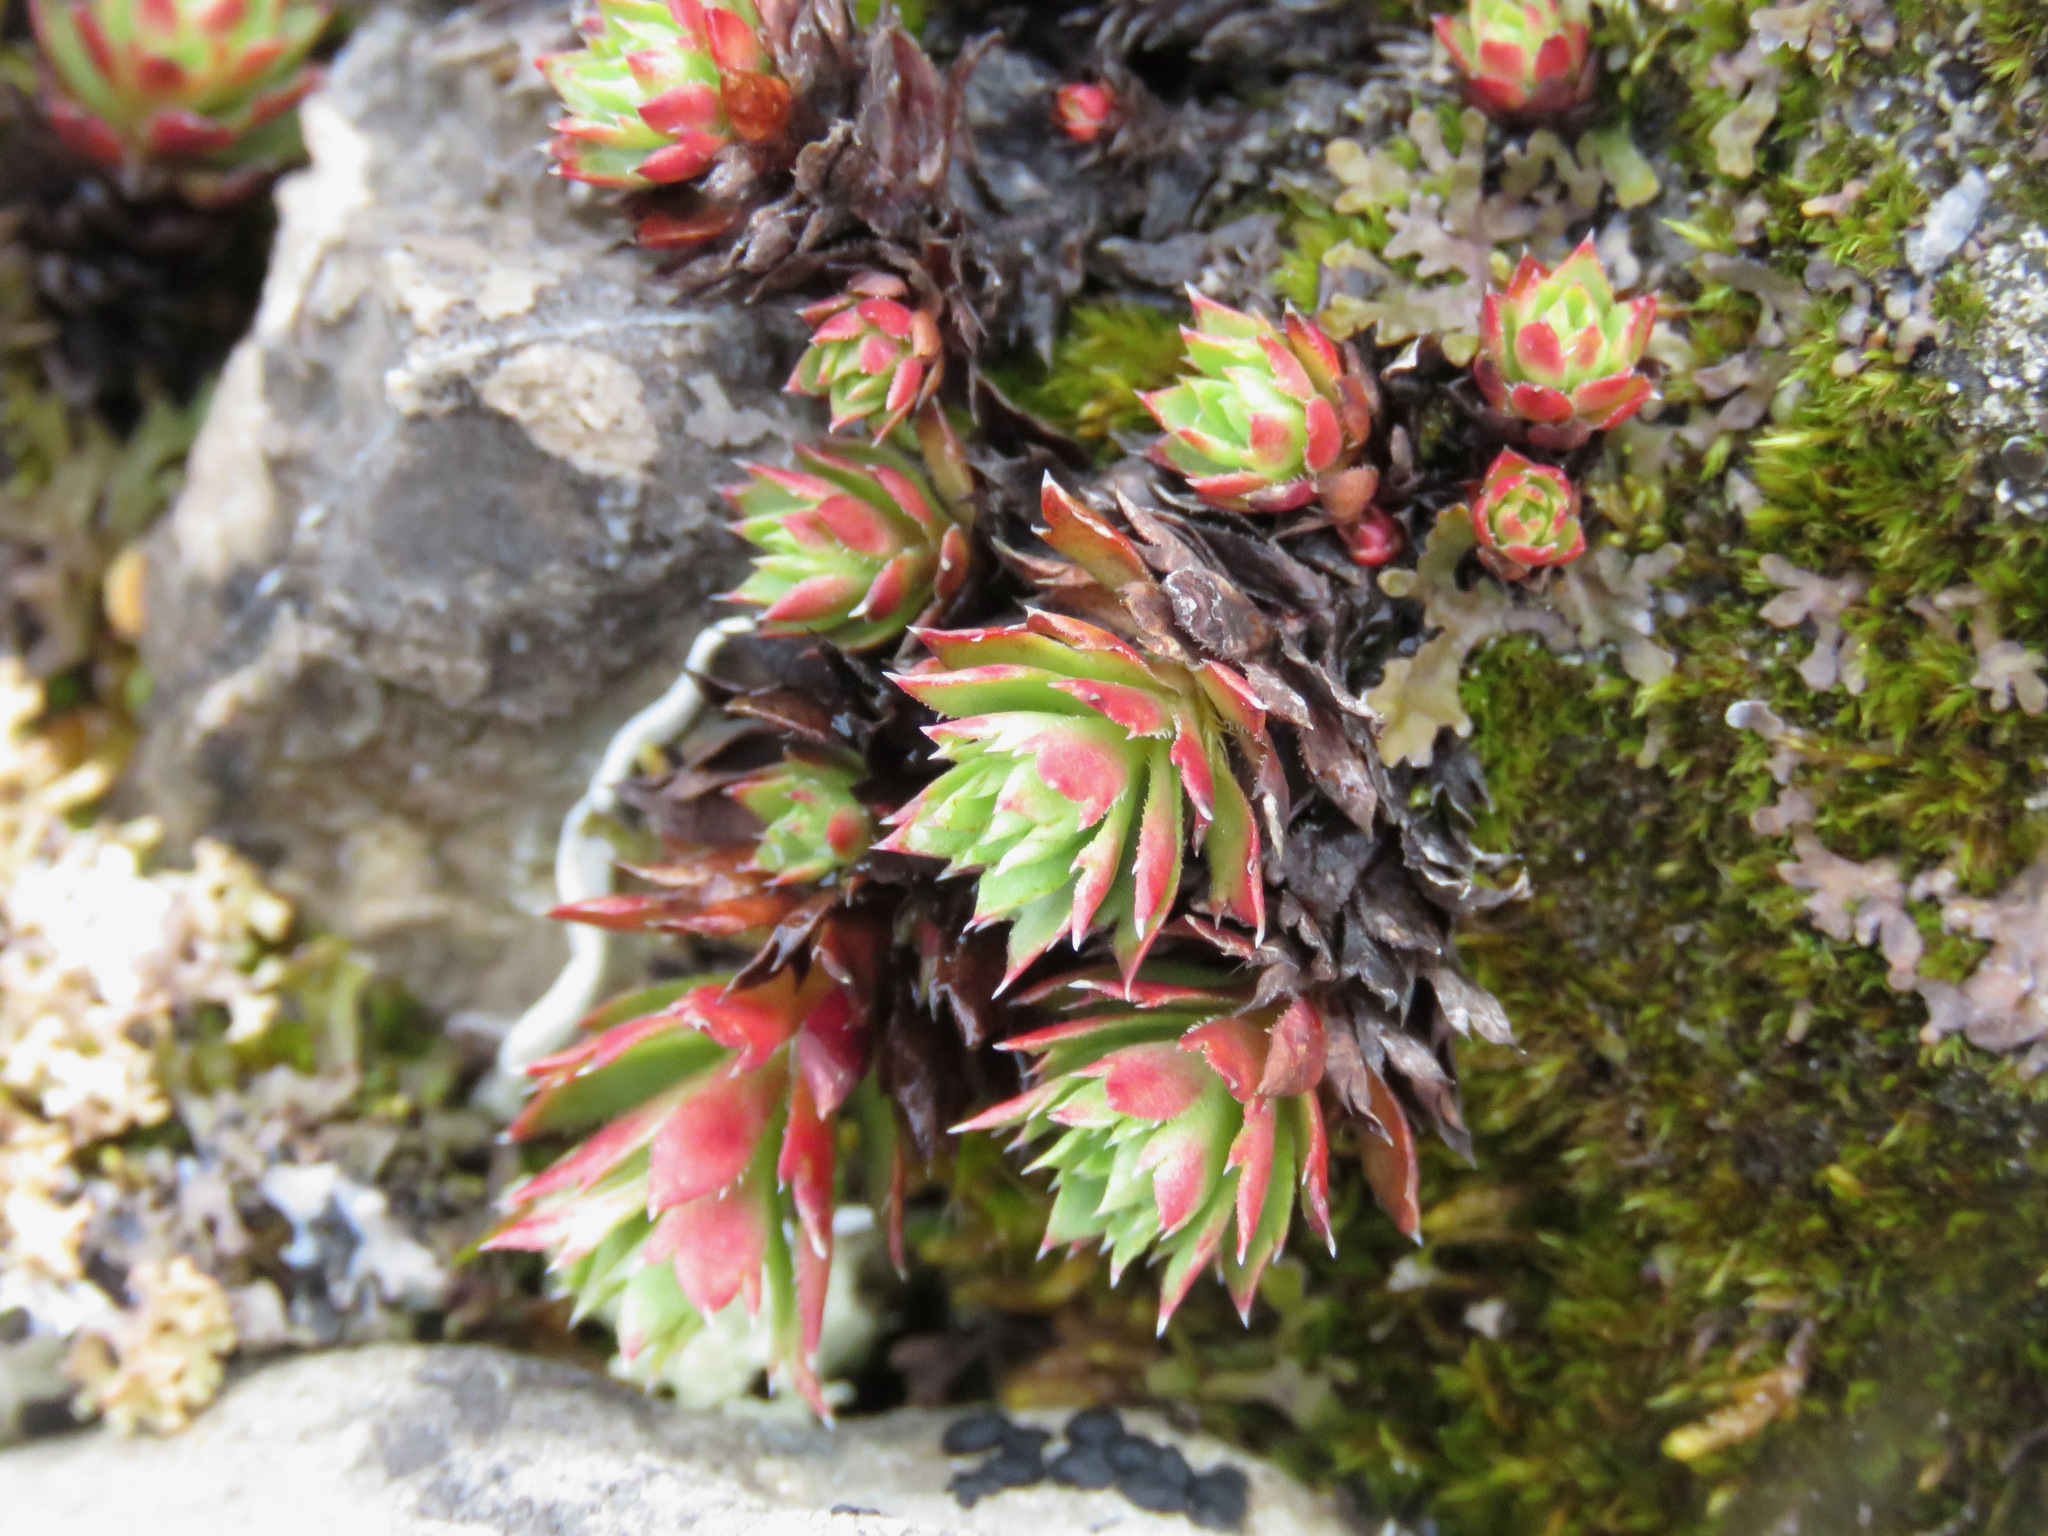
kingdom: Plantae
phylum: Tracheophyta
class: Magnoliopsida
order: Saxifragales
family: Saxifragaceae
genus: Saxifraga
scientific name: Saxifraga tricuspidata
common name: Prickly saxifrage
